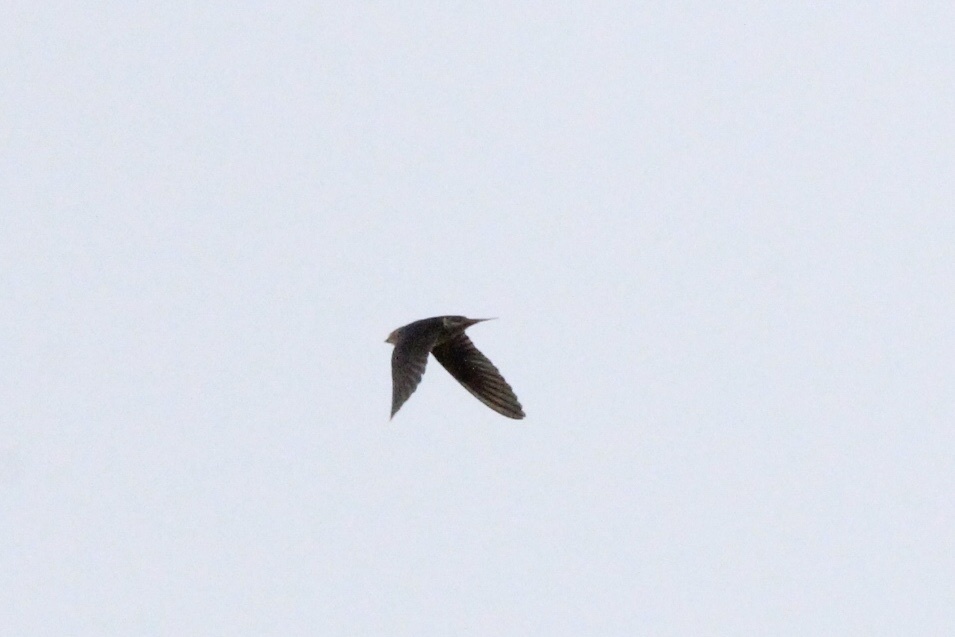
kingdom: Animalia
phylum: Chordata
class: Aves
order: Passeriformes
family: Hirundinidae
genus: Hirundo
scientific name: Hirundo rustica
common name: Barn swallow
